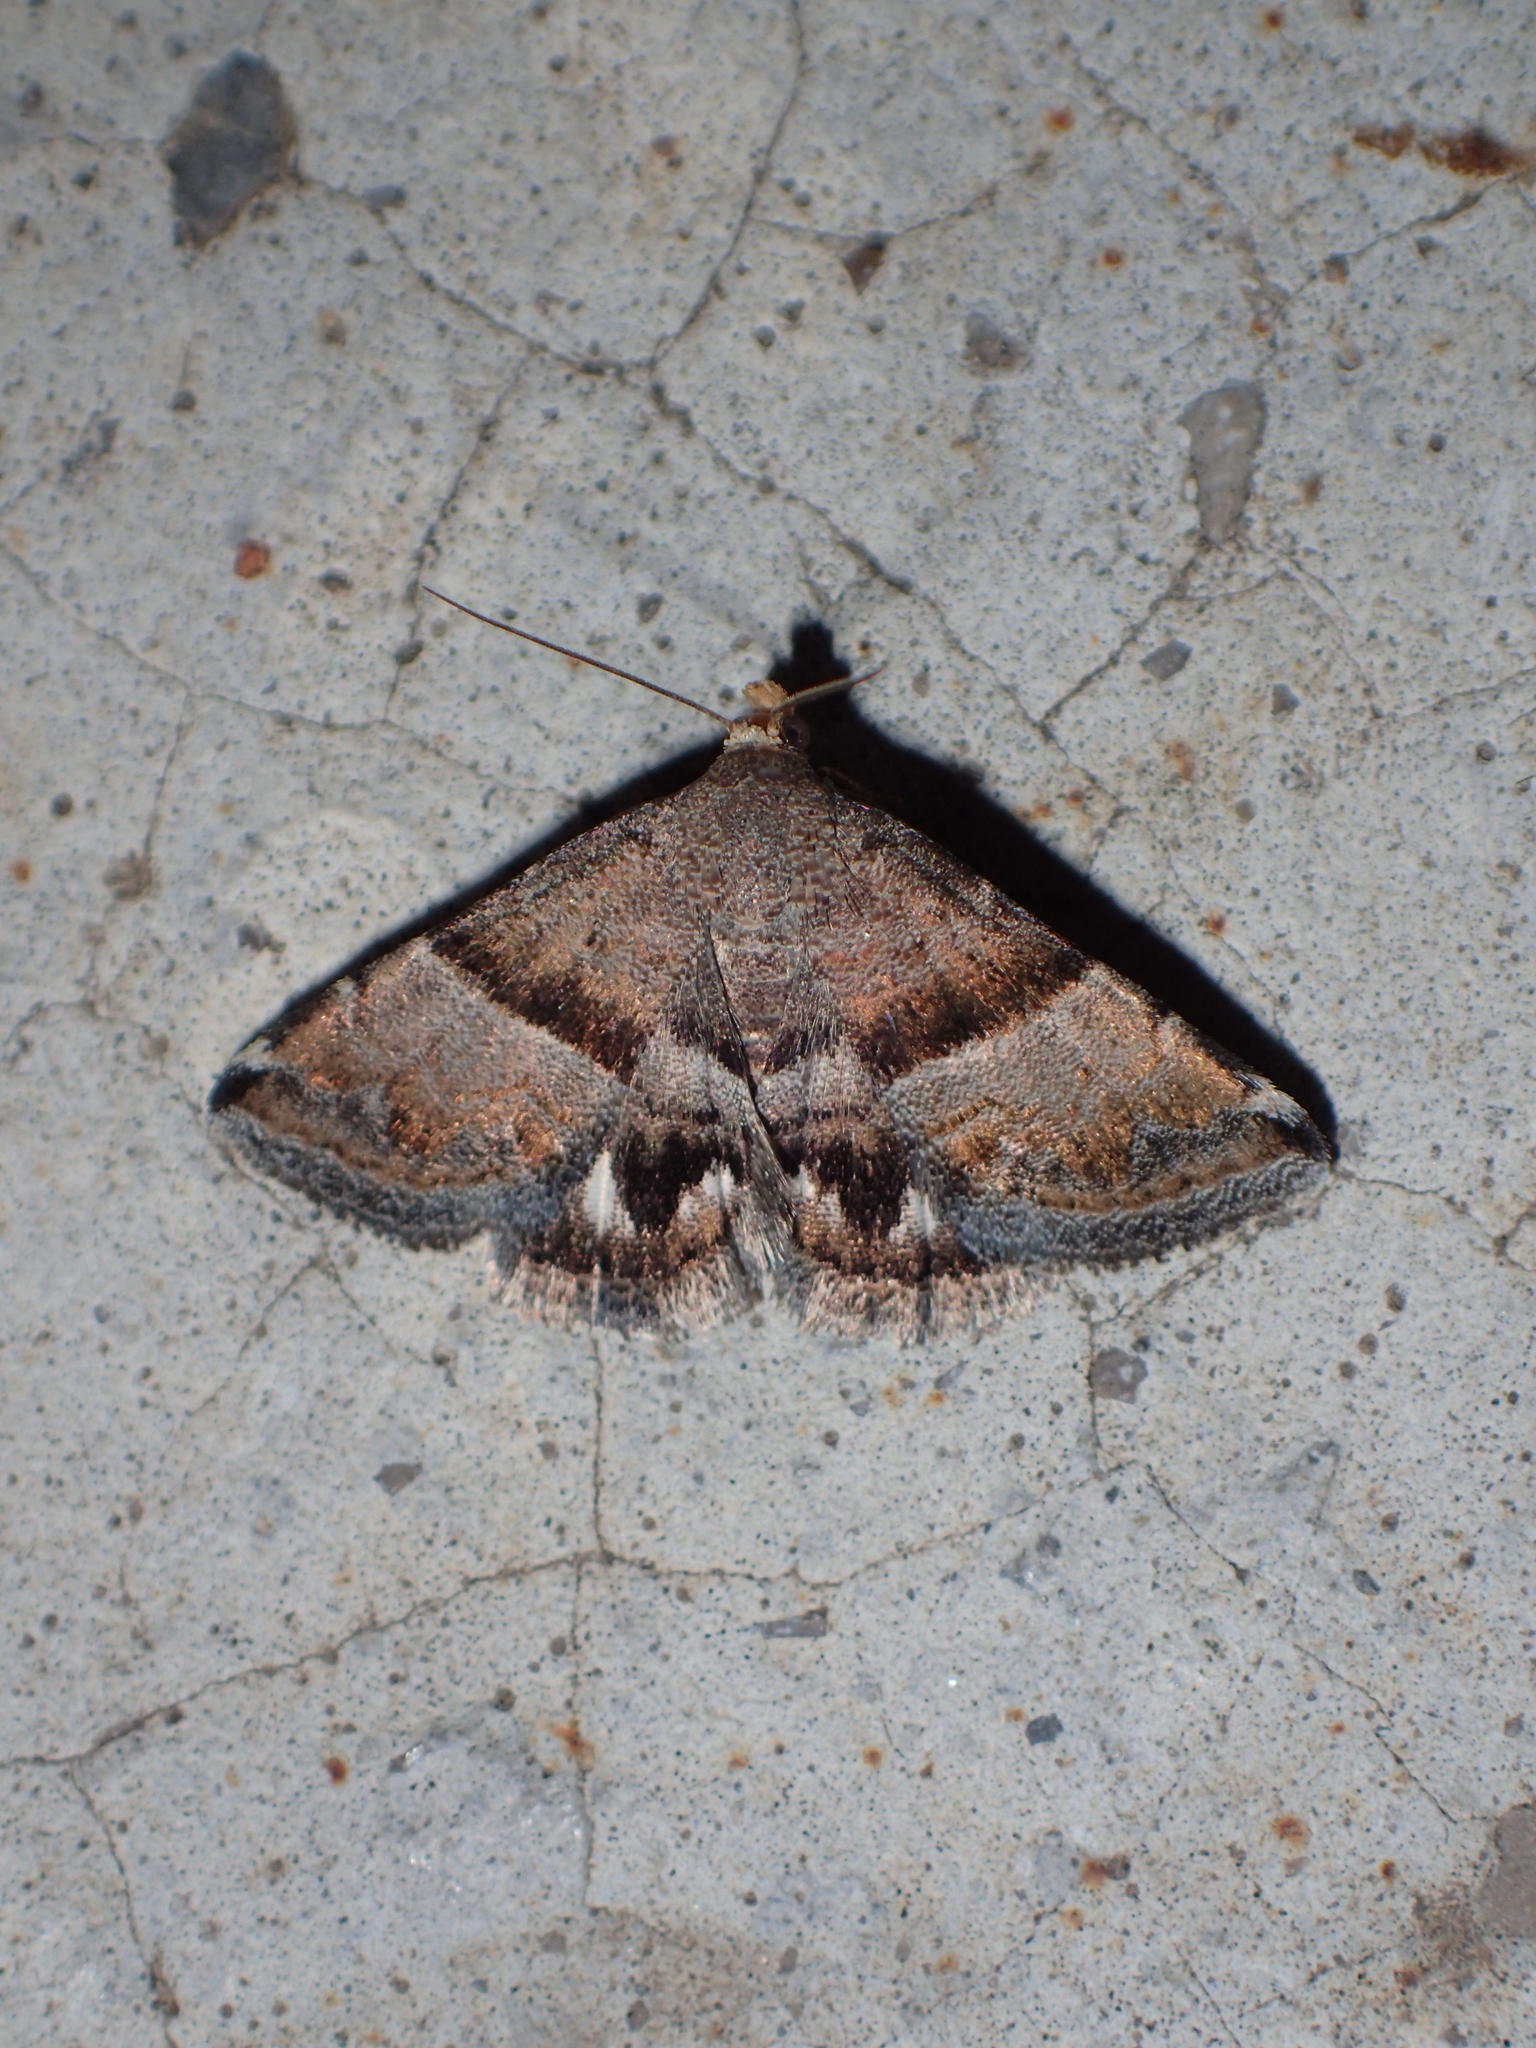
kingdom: Animalia
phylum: Arthropoda
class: Insecta
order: Lepidoptera
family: Noctuidae
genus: Odice
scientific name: Odice jucunda
